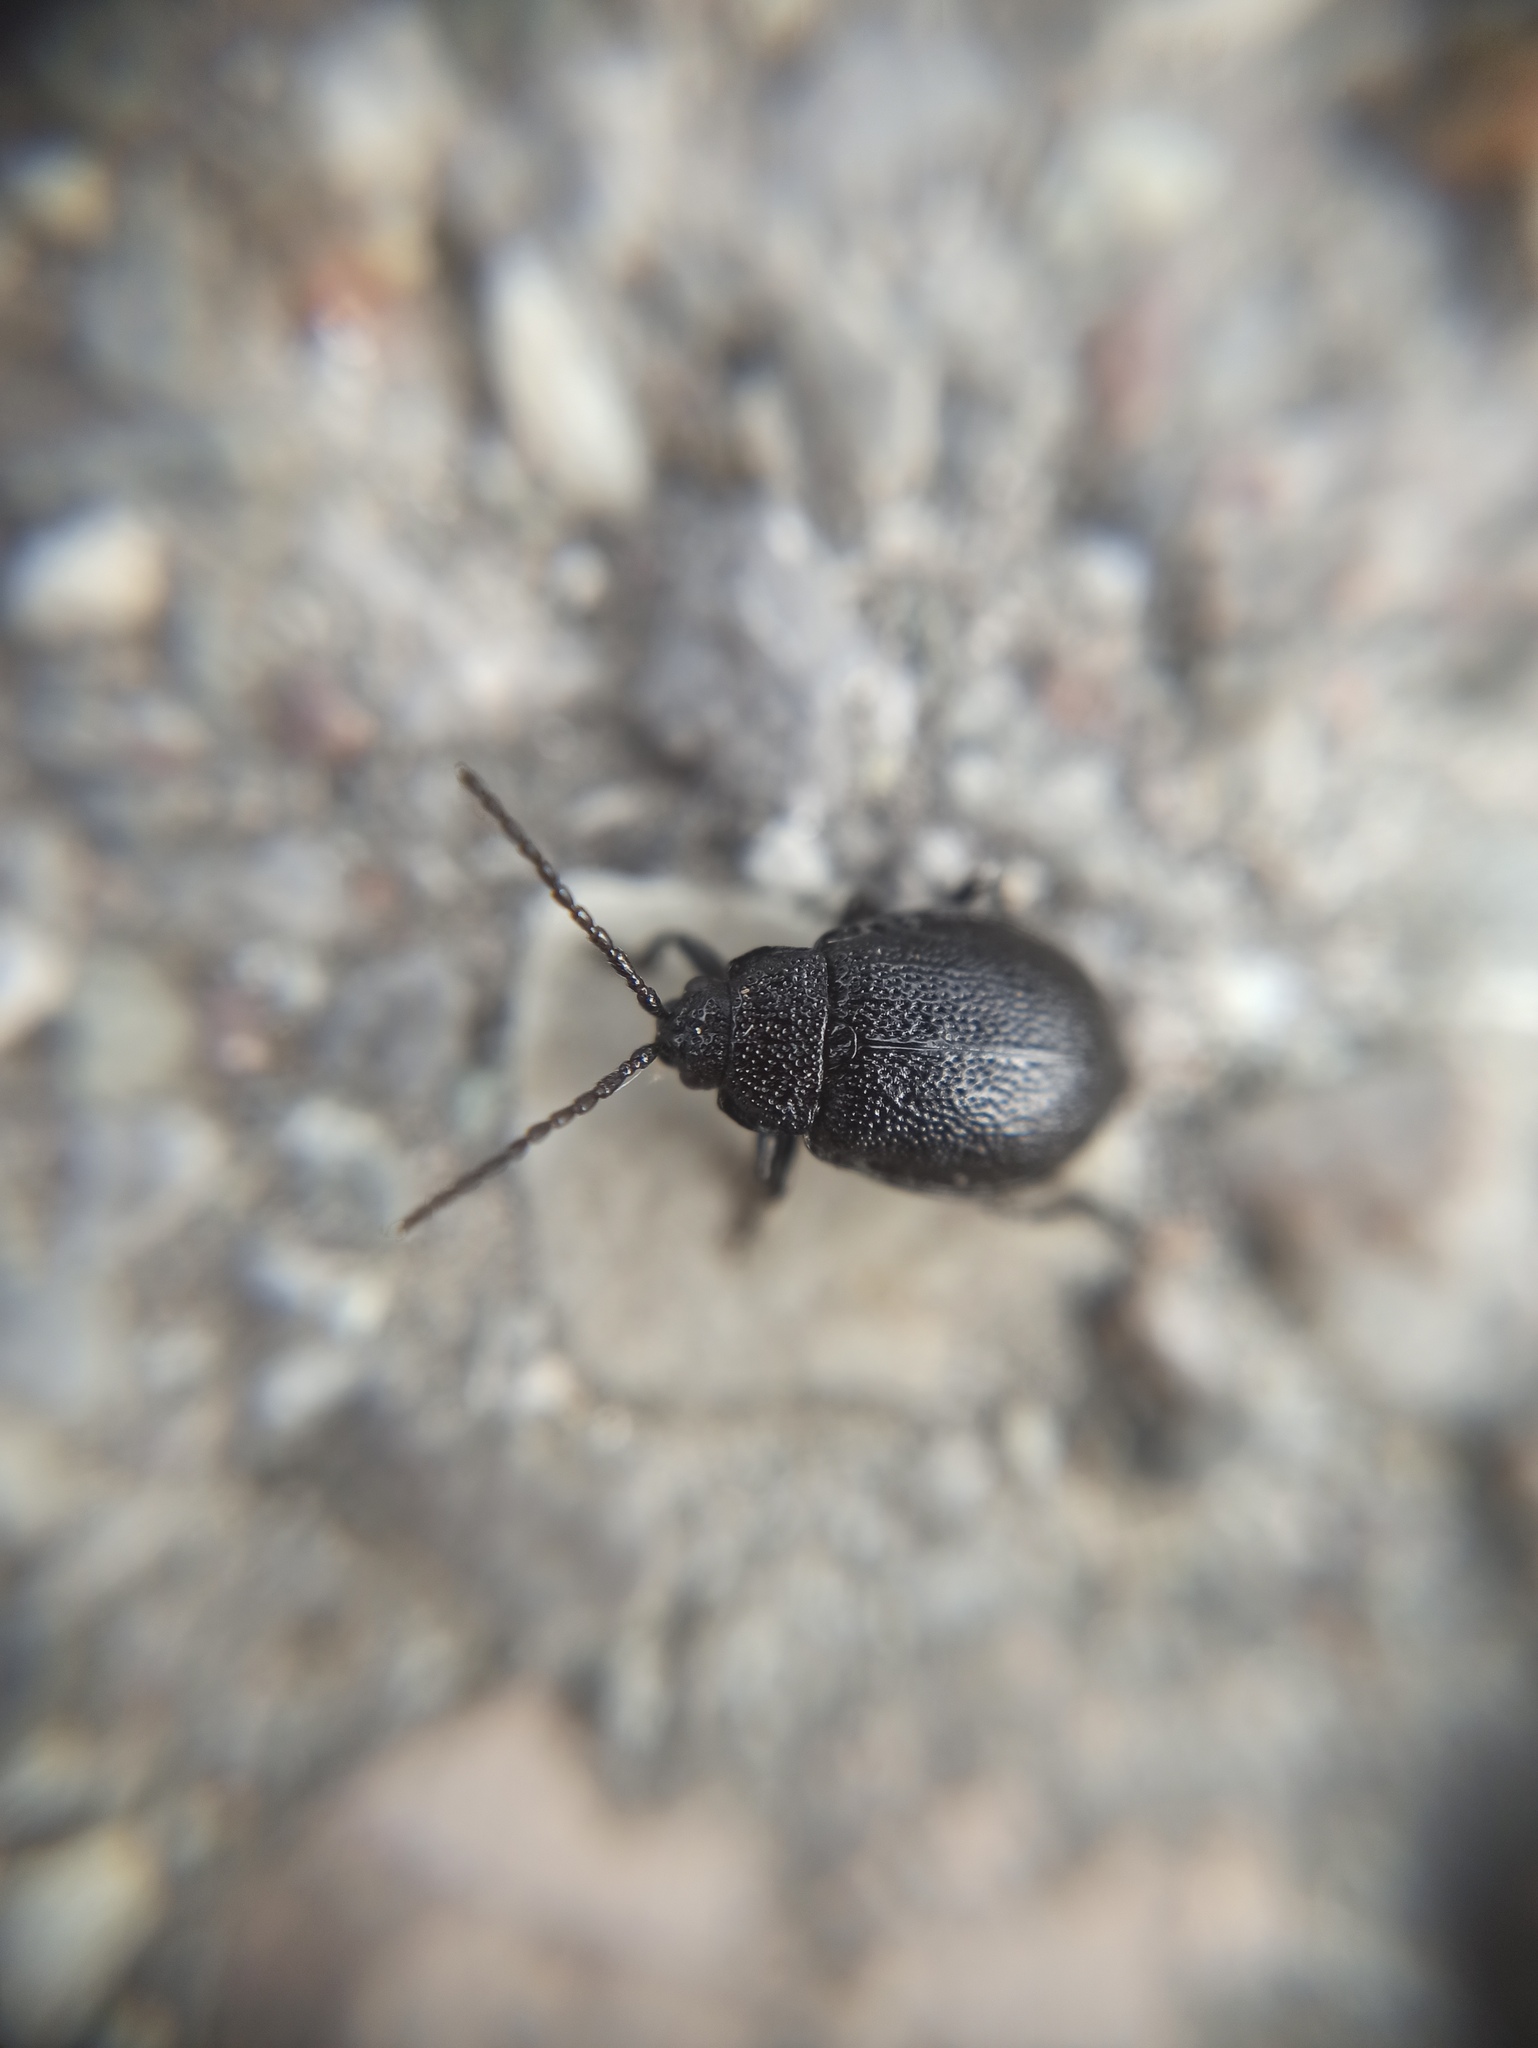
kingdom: Animalia
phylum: Arthropoda
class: Insecta
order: Coleoptera
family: Chrysomelidae
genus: Galeruca
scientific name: Galeruca tanaceti
